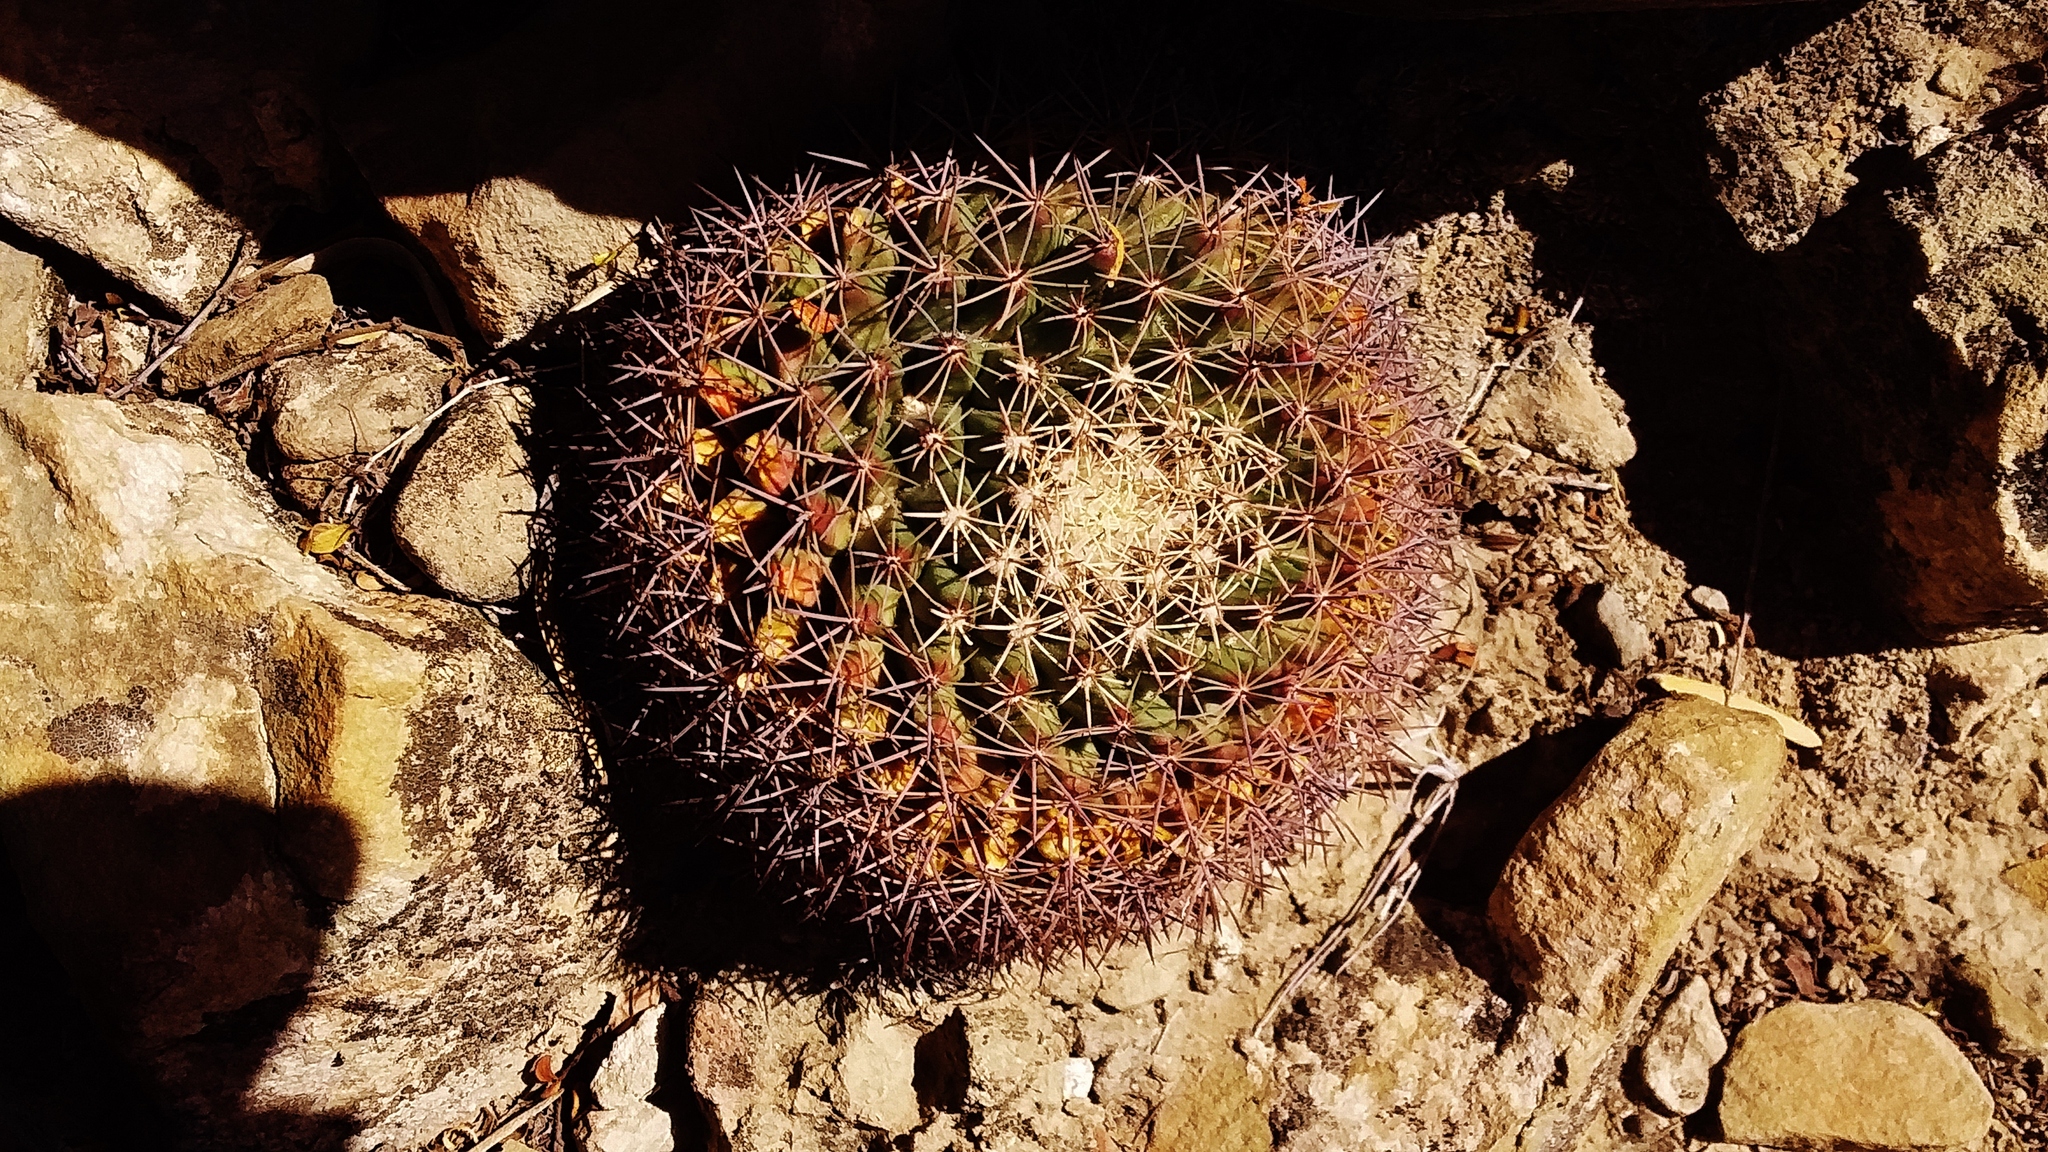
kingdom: Plantae
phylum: Tracheophyta
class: Magnoliopsida
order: Caryophyllales
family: Cactaceae
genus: Mammillaria
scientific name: Mammillaria heyderi
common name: Little nipple cactus
